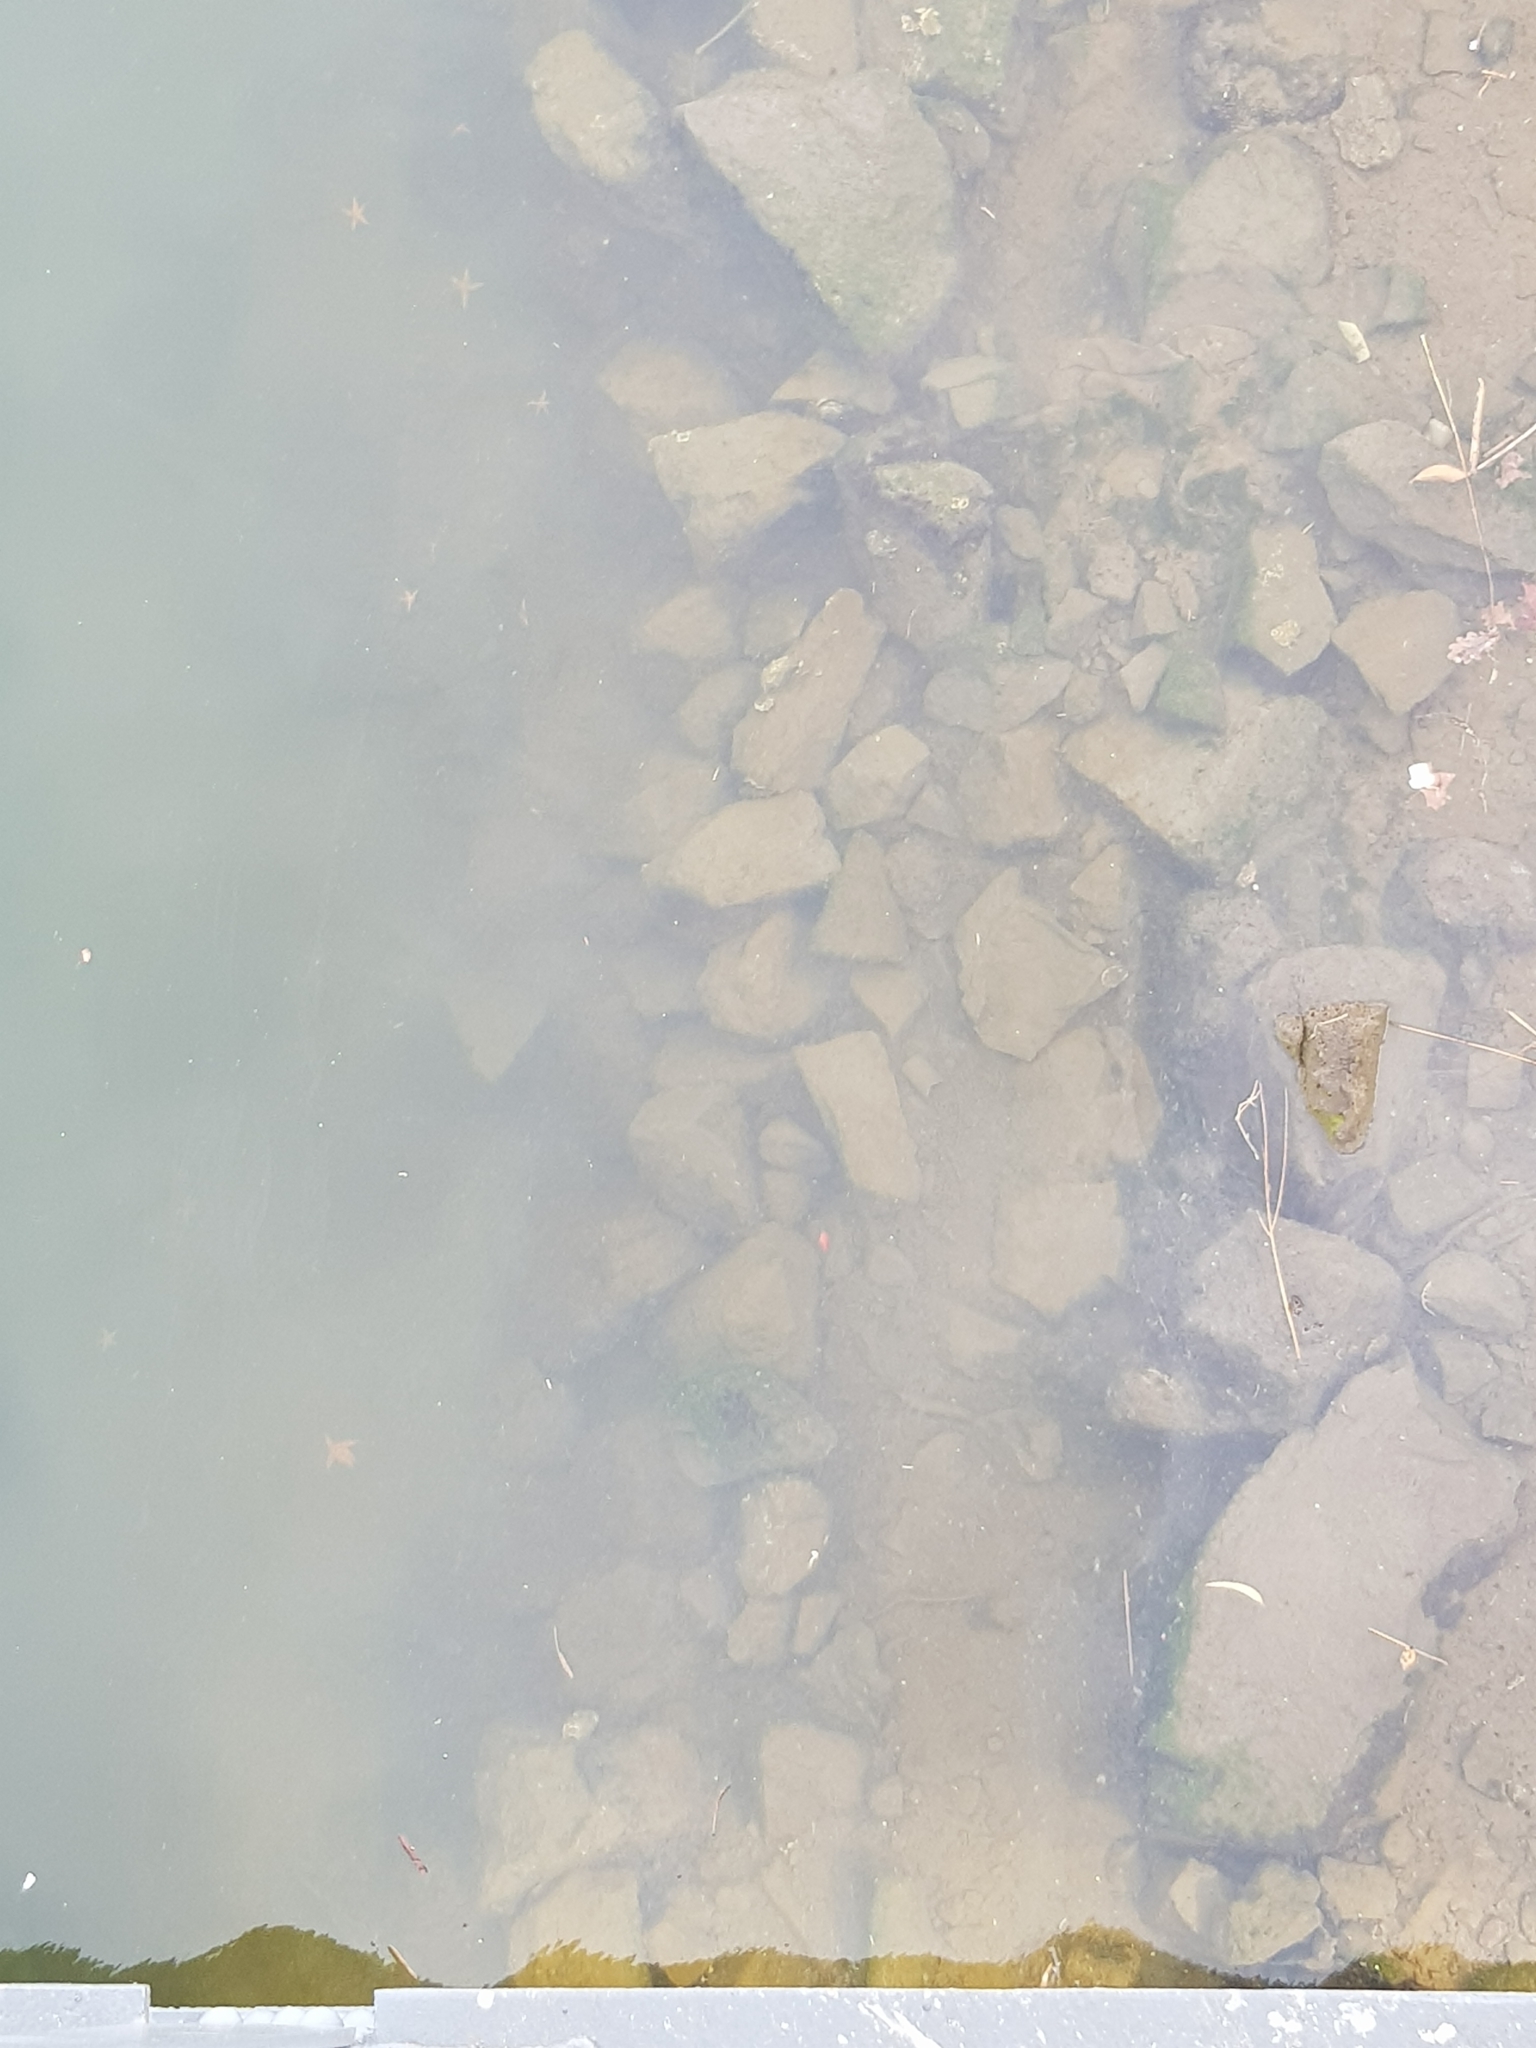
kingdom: Animalia
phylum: Echinodermata
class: Asteroidea
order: Forcipulatida
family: Asteriidae
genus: Asterias
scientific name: Asterias amurensis
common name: Flat-bottomed star
